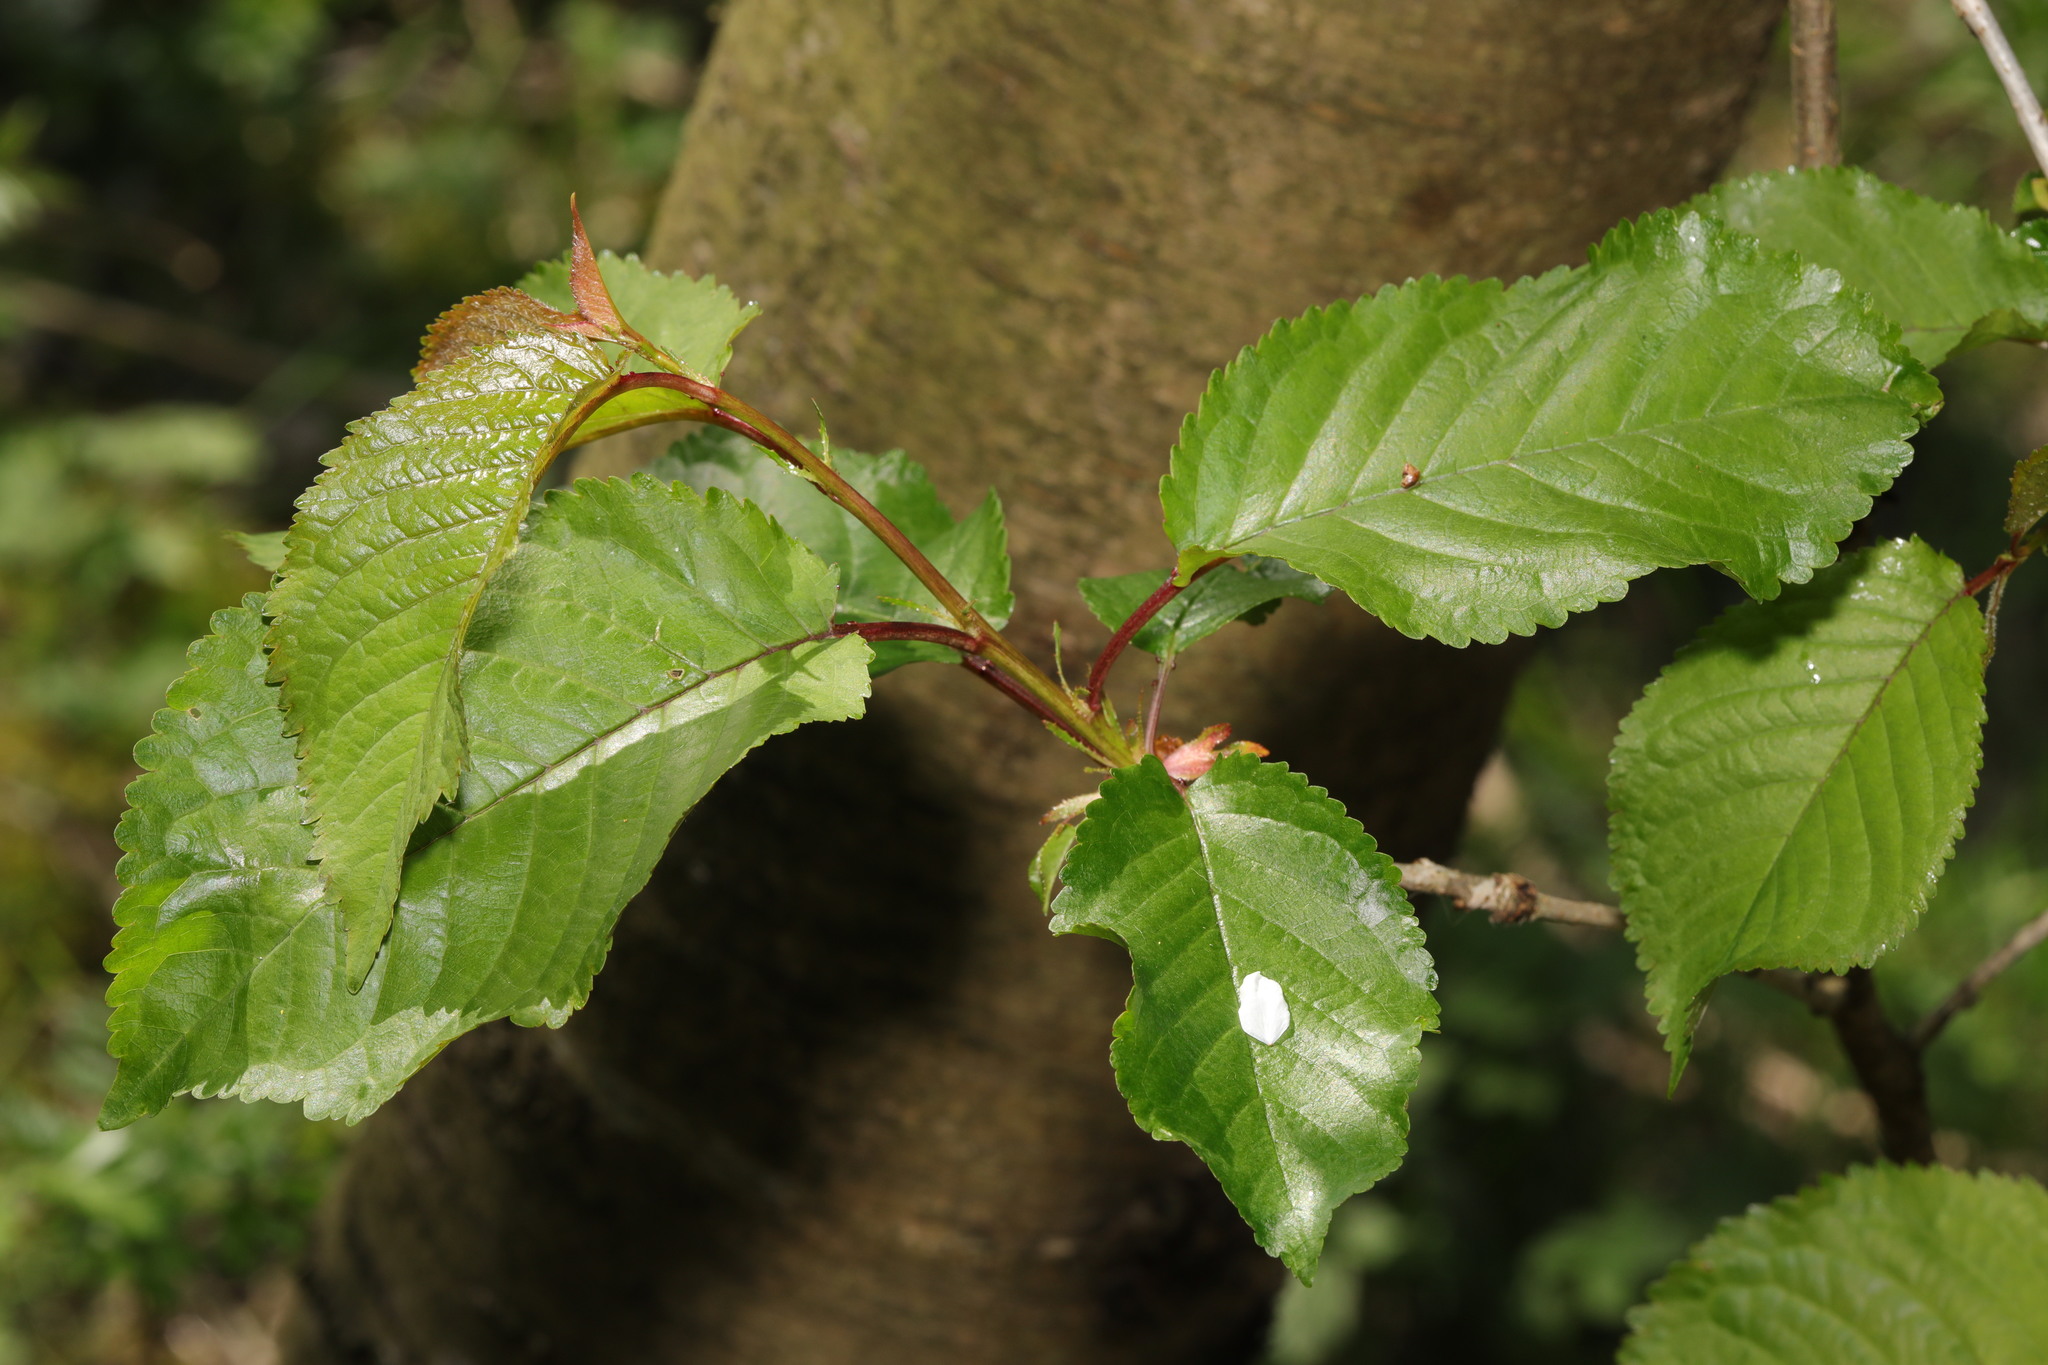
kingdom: Plantae
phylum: Tracheophyta
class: Magnoliopsida
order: Rosales
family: Rosaceae
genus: Prunus
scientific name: Prunus avium
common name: Sweet cherry
